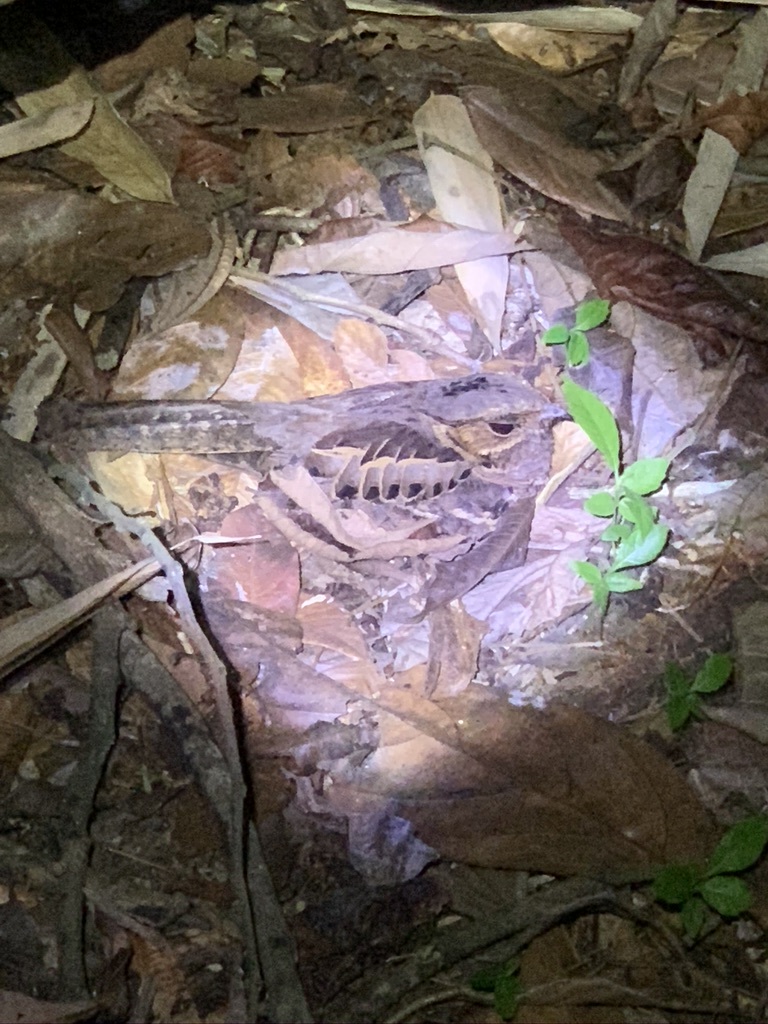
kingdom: Animalia
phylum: Chordata
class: Aves
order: Caprimulgiformes
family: Caprimulgidae
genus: Nyctidromus
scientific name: Nyctidromus albicollis
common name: Pauraque
